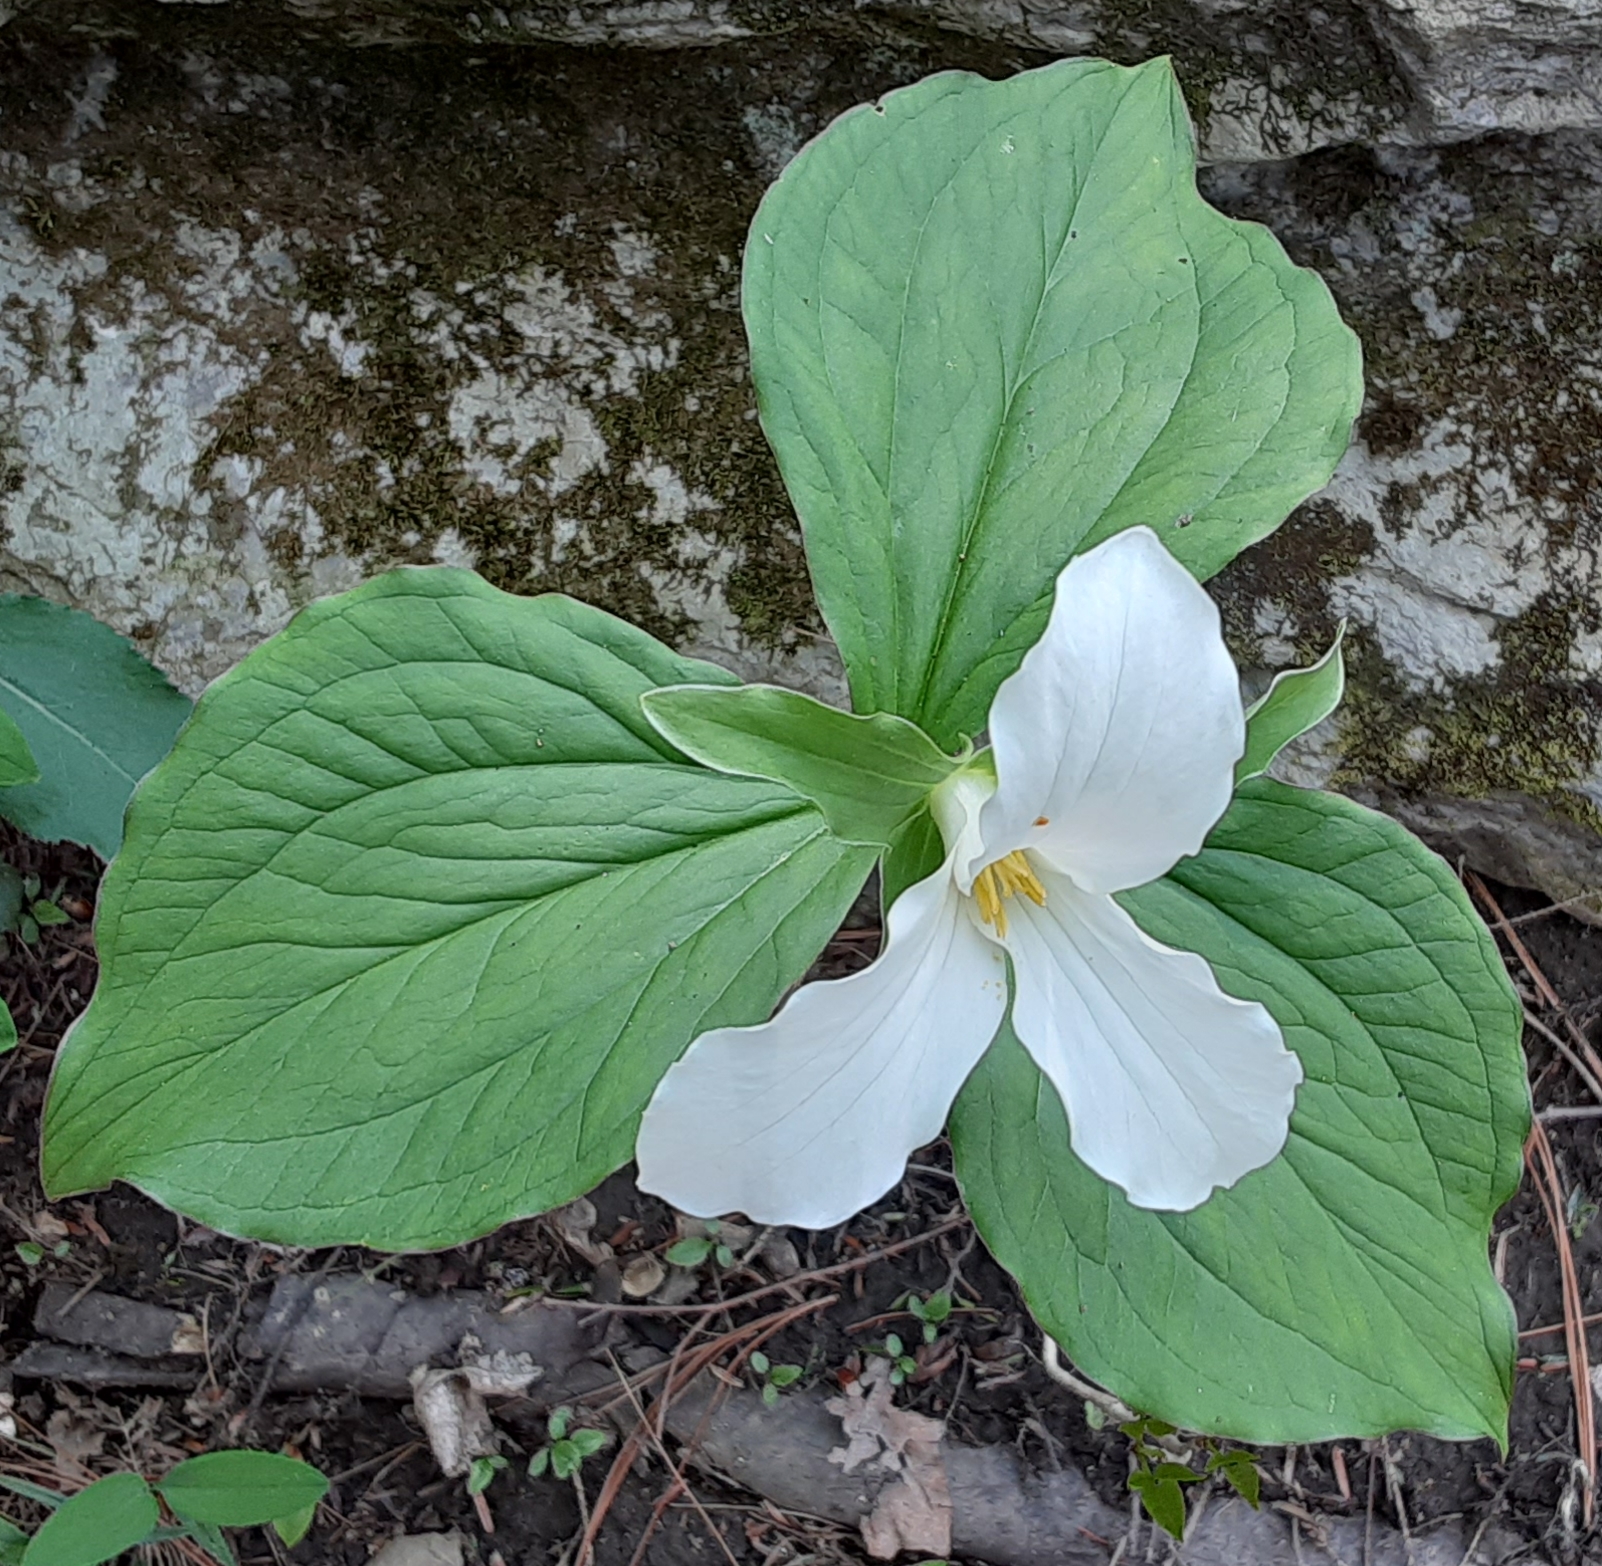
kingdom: Plantae
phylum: Tracheophyta
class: Liliopsida
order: Liliales
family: Melanthiaceae
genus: Trillium
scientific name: Trillium grandiflorum
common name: Great white trillium
